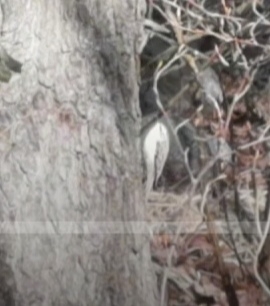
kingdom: Animalia
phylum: Chordata
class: Aves
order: Passeriformes
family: Certhiidae
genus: Certhia
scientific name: Certhia familiaris
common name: Eurasian treecreeper
